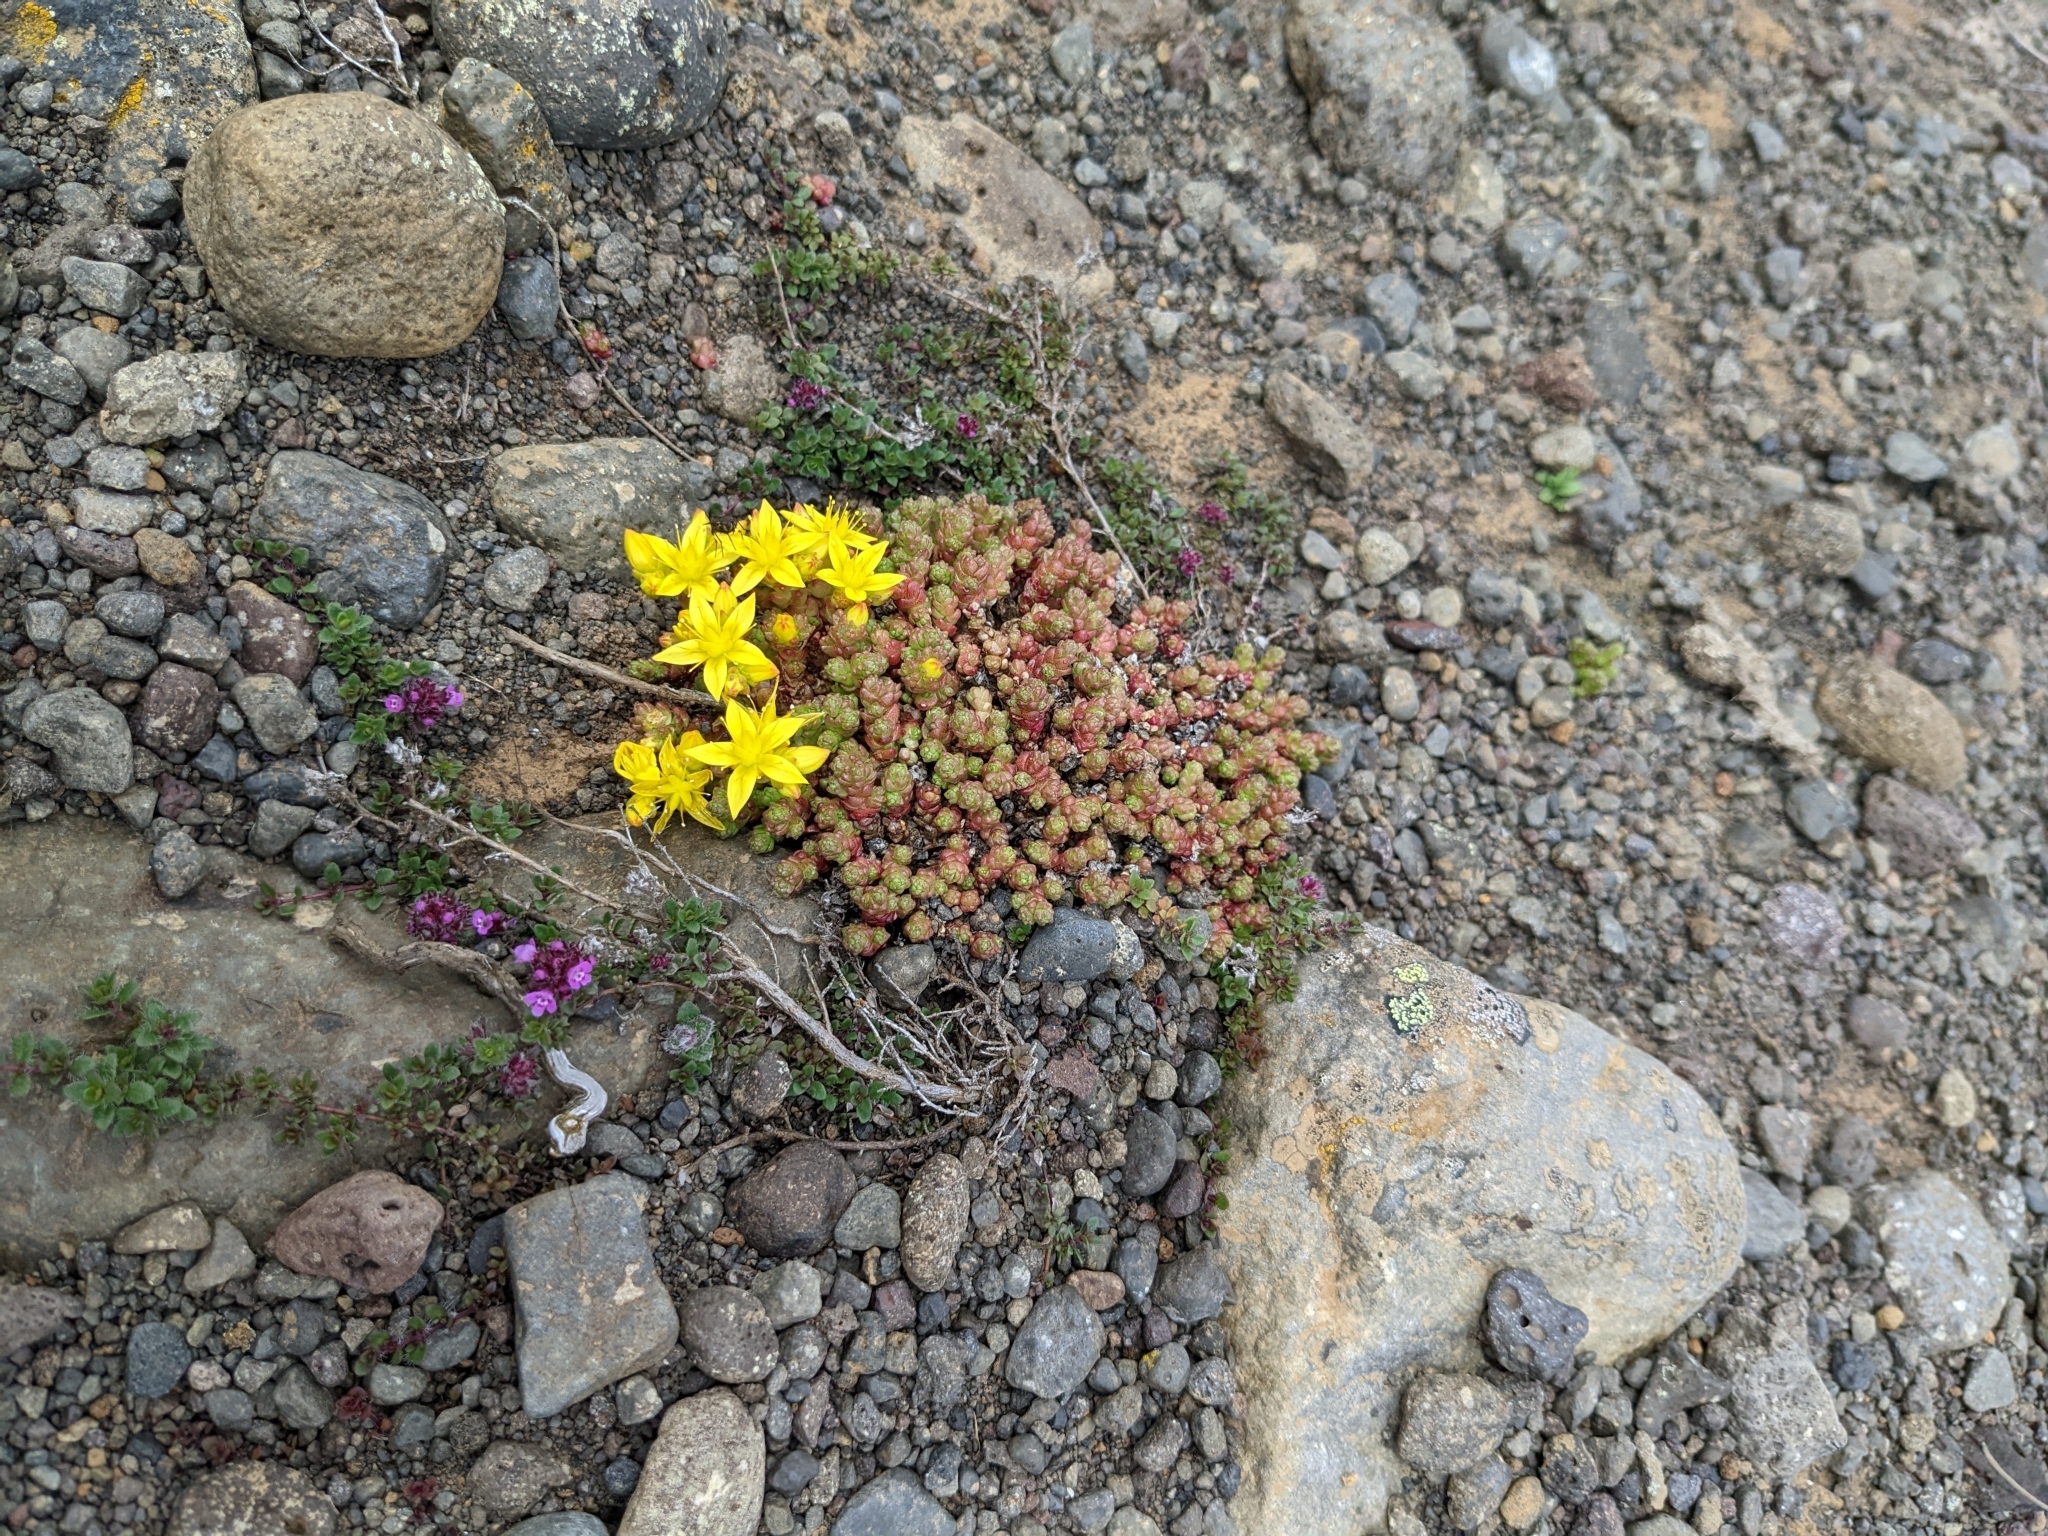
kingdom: Plantae
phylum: Tracheophyta
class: Magnoliopsida
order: Saxifragales
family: Crassulaceae
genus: Sedum
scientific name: Sedum acre
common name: Biting stonecrop
